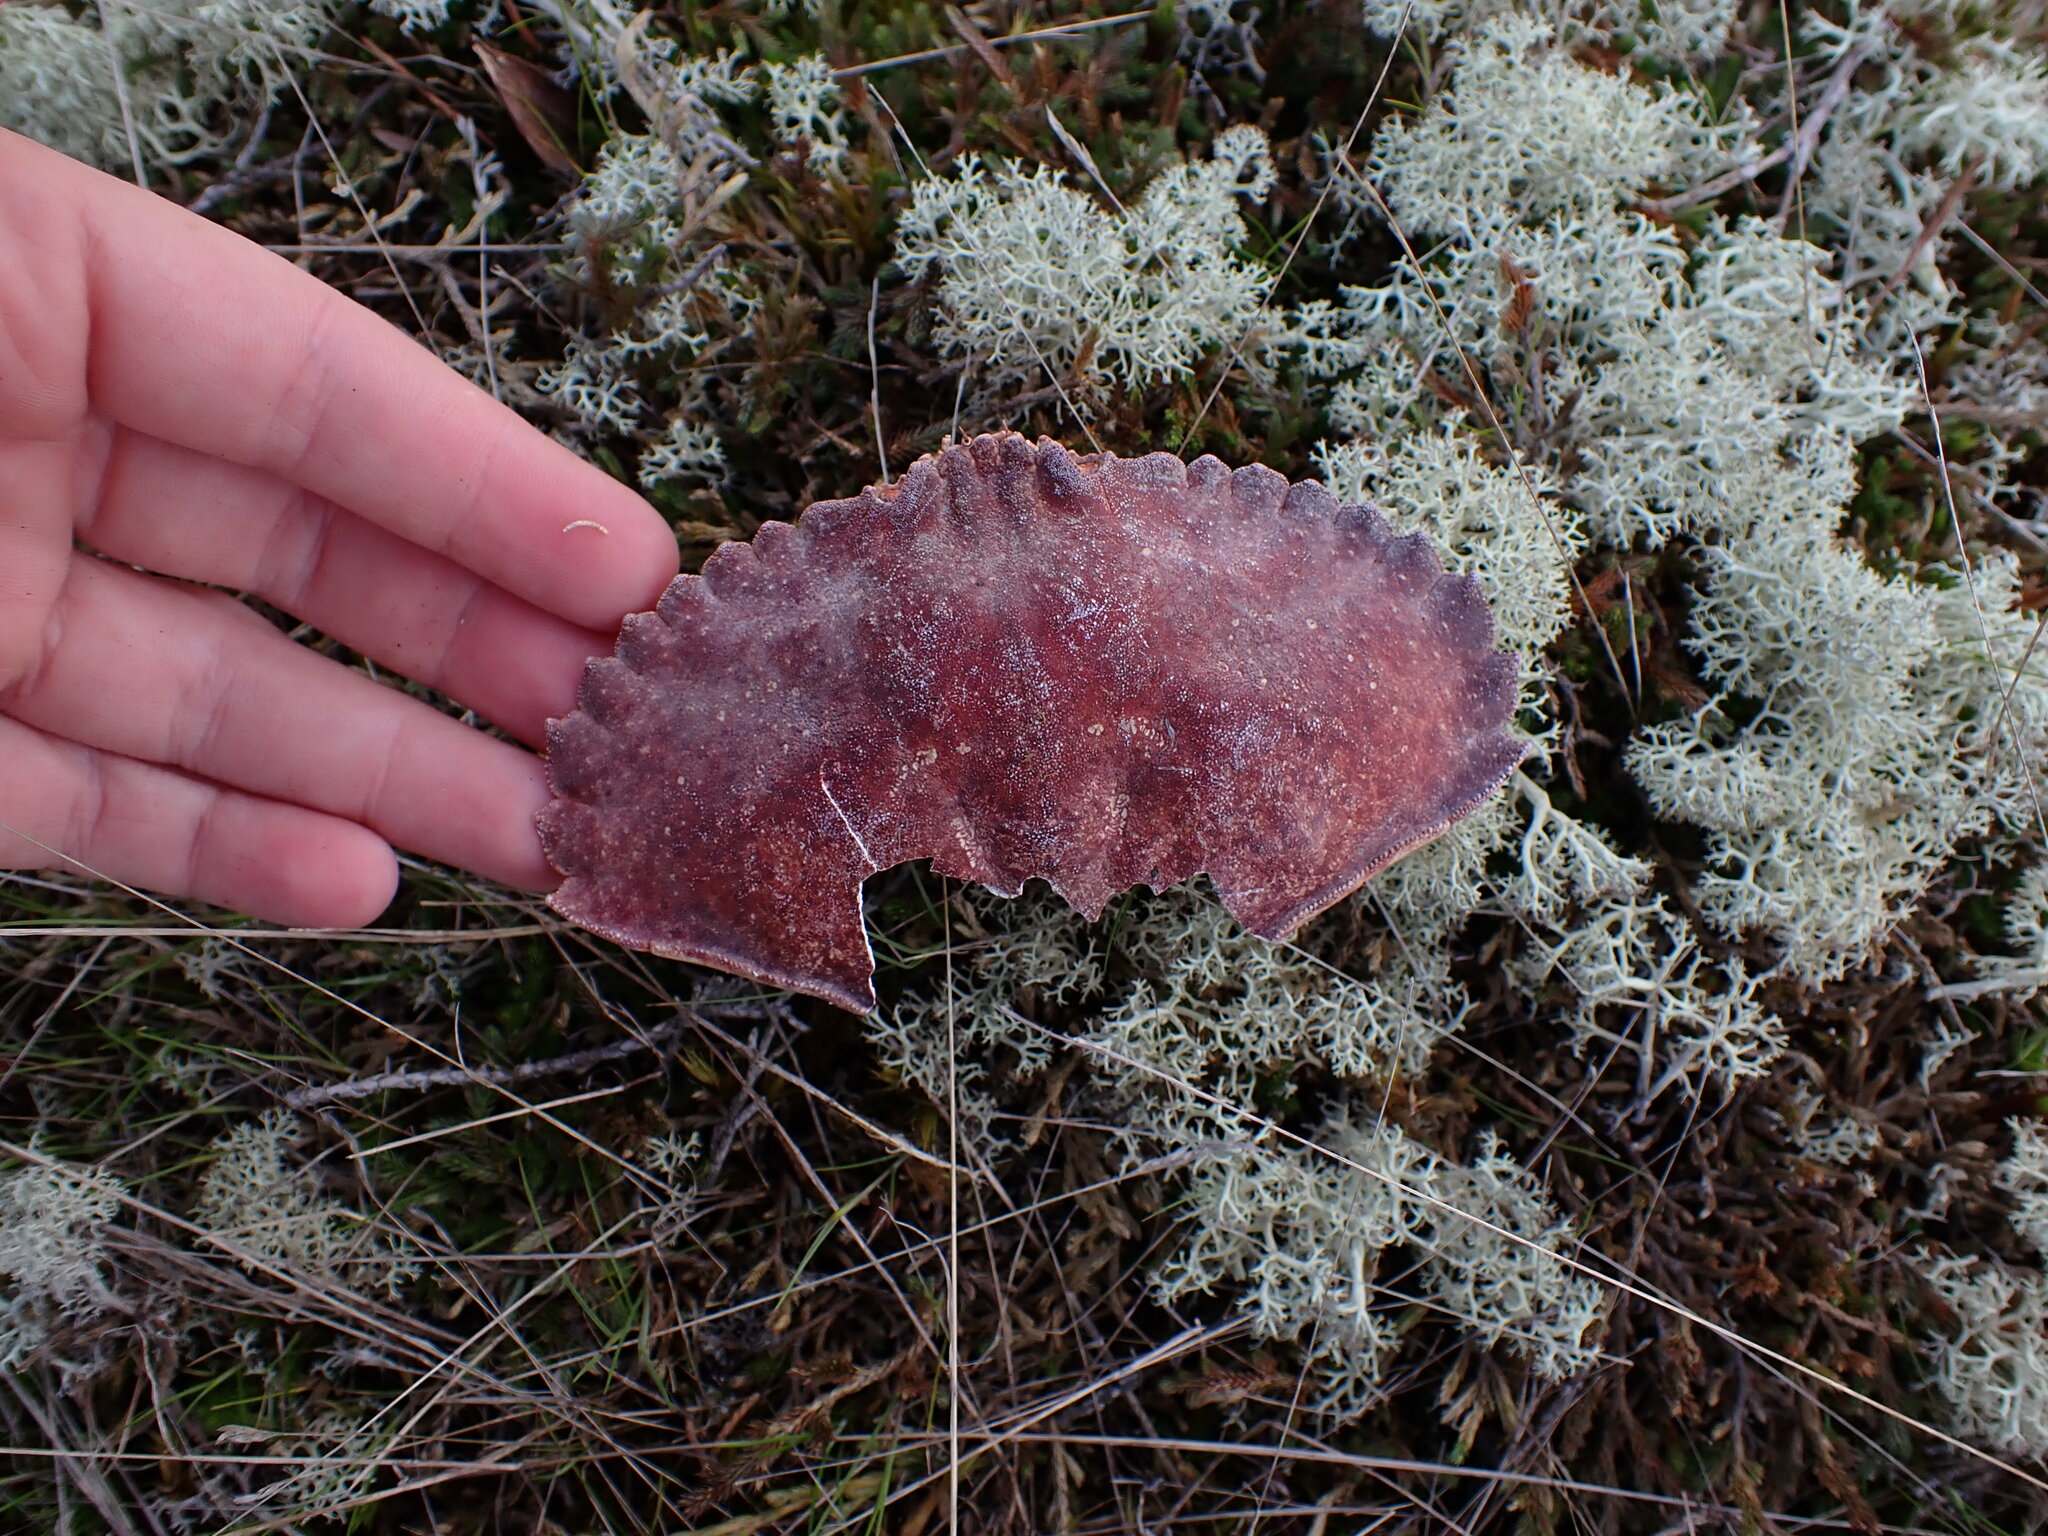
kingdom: Animalia
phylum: Arthropoda
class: Malacostraca
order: Decapoda
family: Cancridae
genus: Cancer
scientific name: Cancer productus
